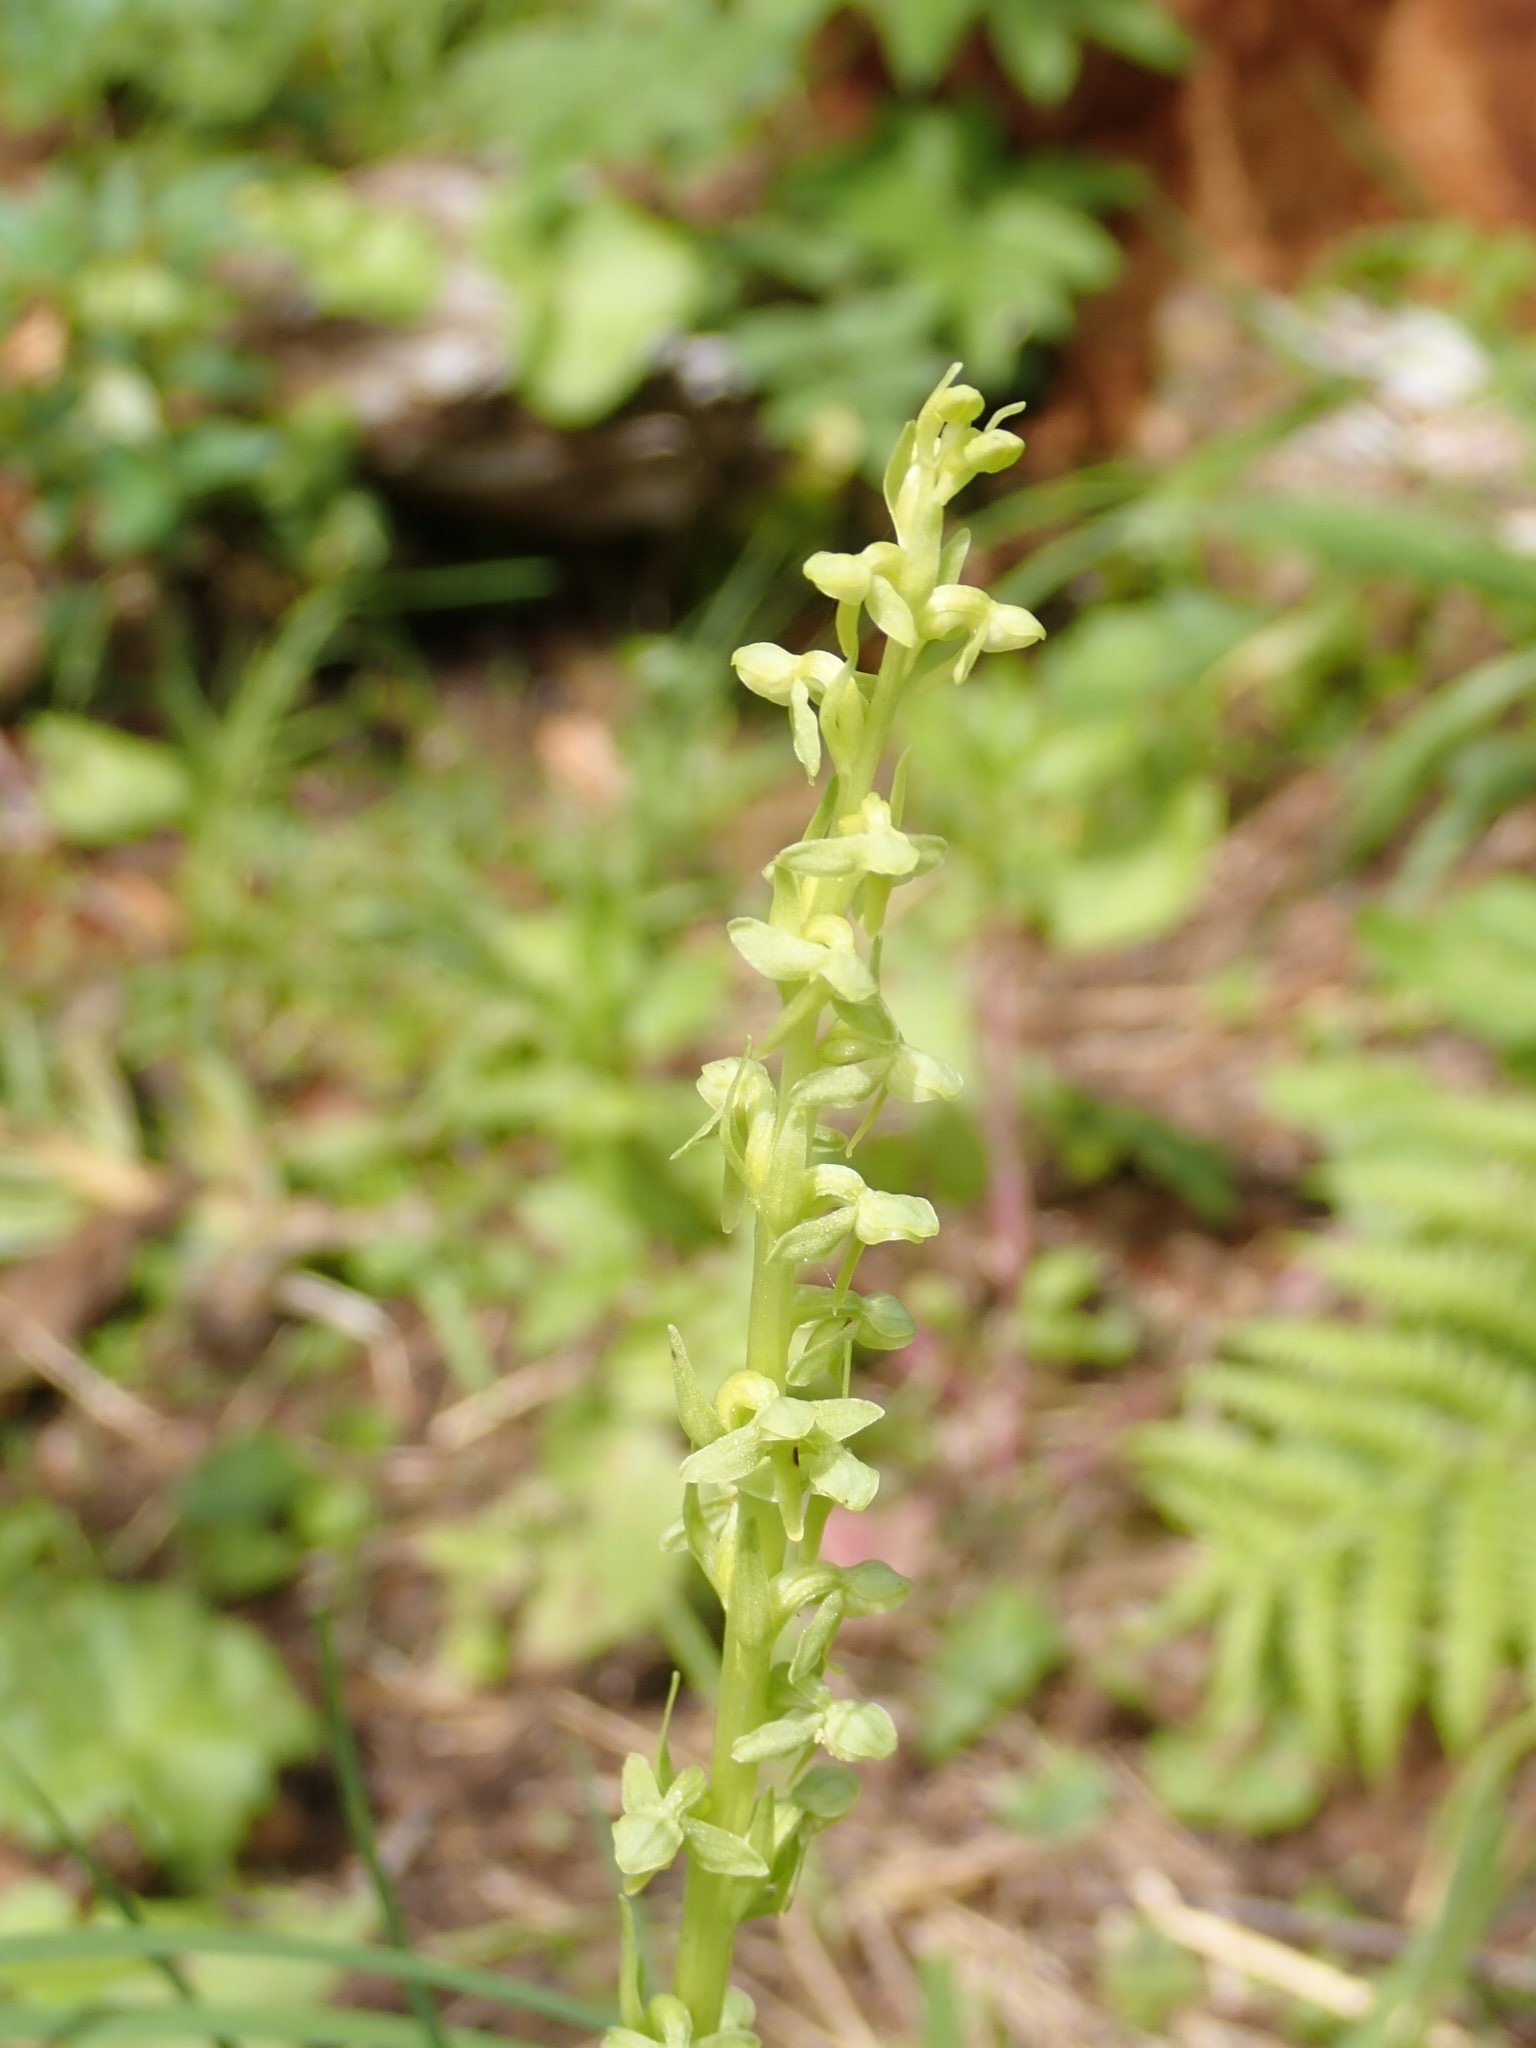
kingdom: Plantae
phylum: Tracheophyta
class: Liliopsida
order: Asparagales
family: Orchidaceae
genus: Platanthera
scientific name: Platanthera stricta
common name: Slender bog orchid
